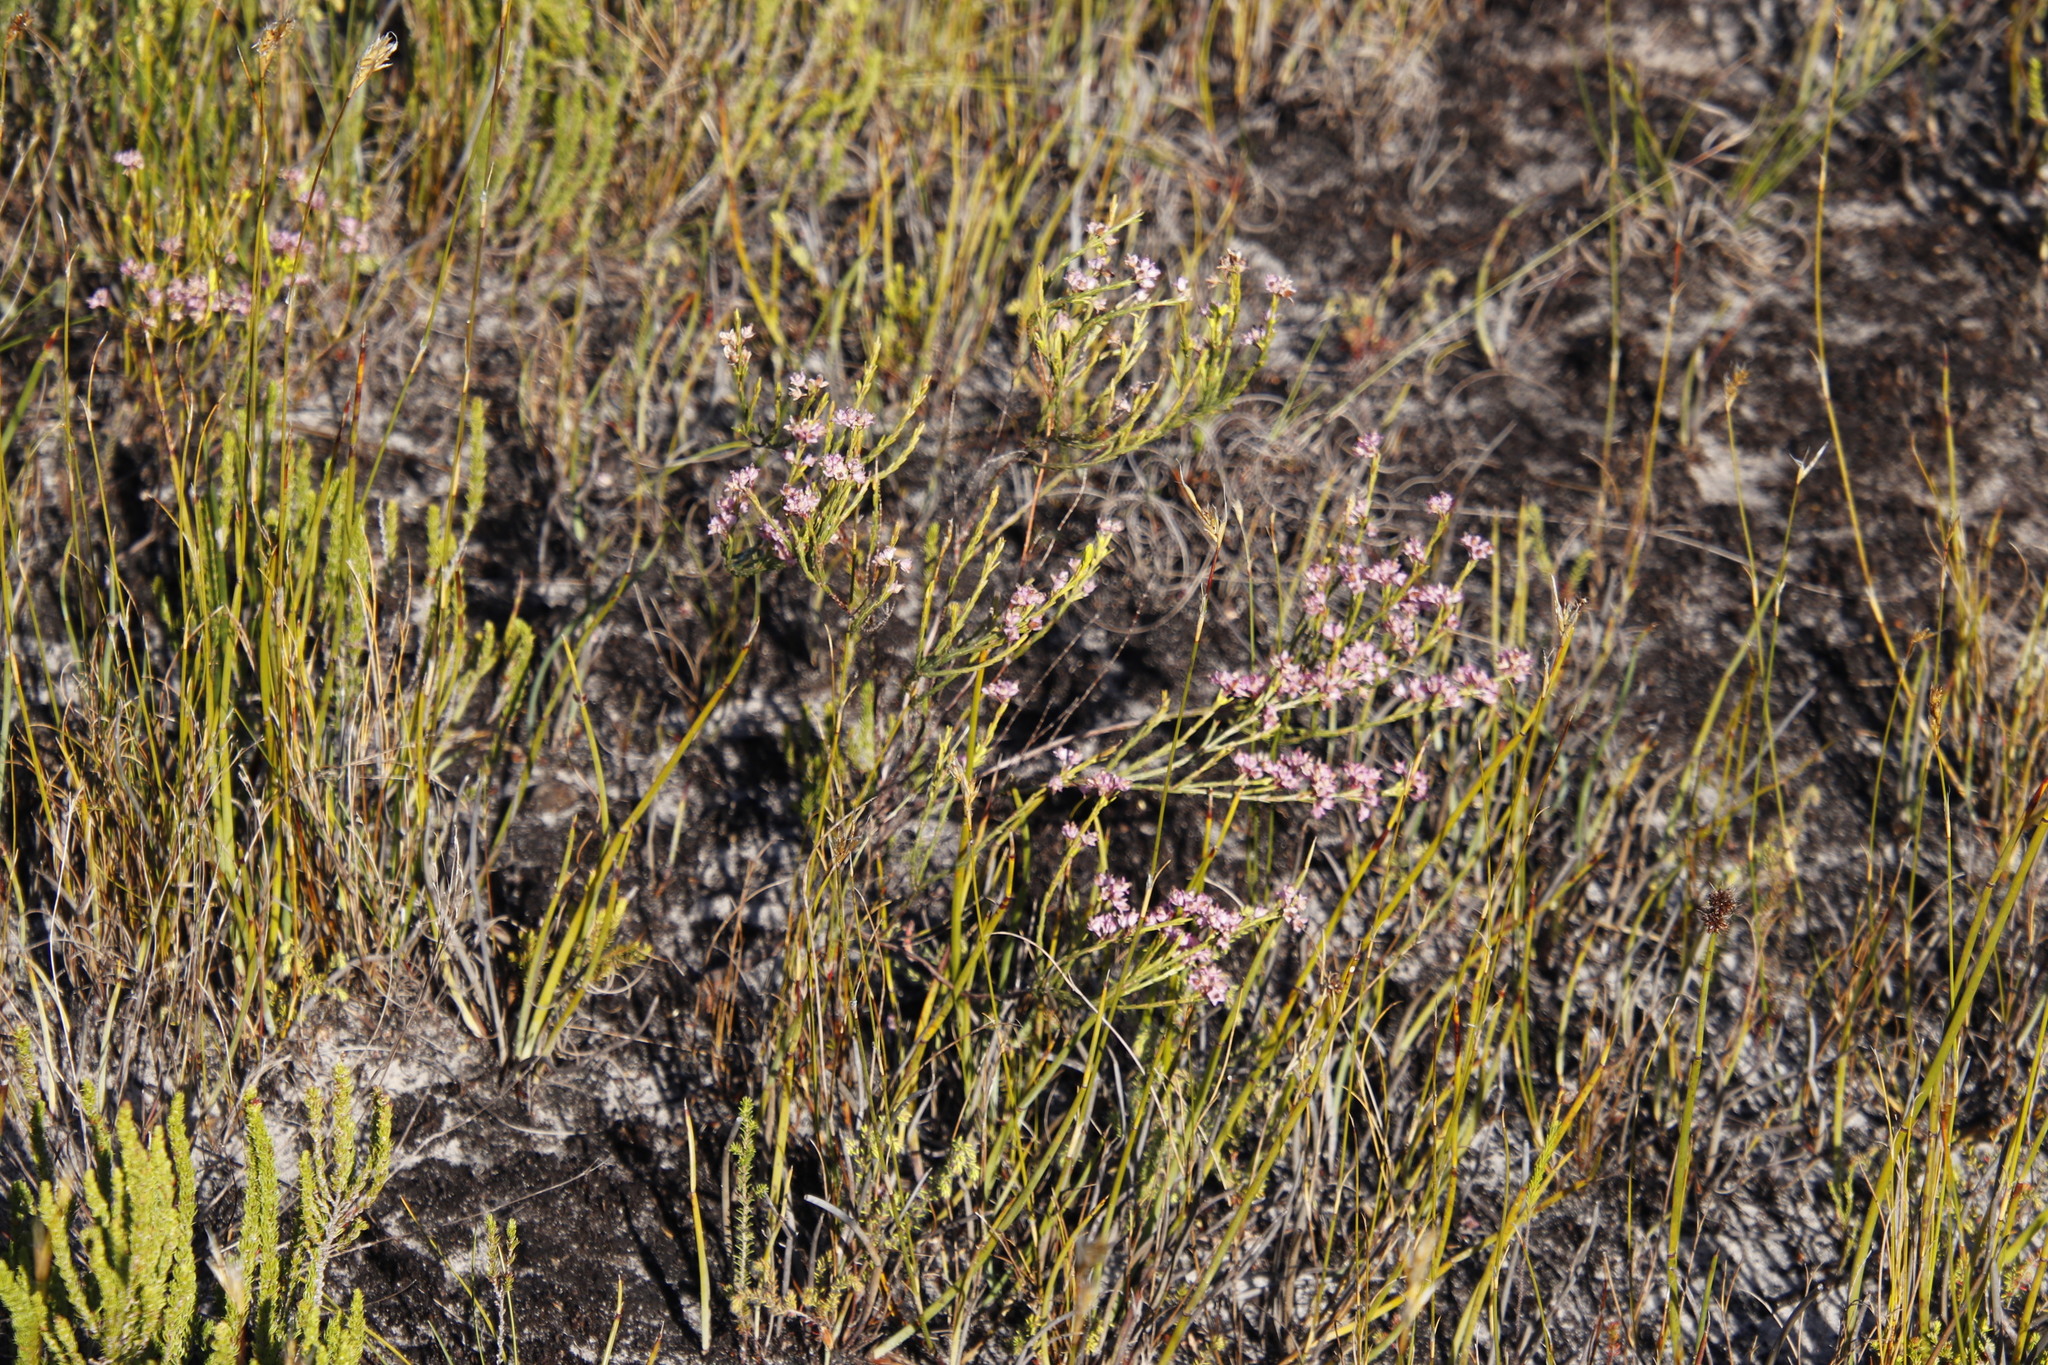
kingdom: Plantae
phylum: Tracheophyta
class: Magnoliopsida
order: Ericales
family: Ericaceae
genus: Erica
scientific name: Erica corifolia
